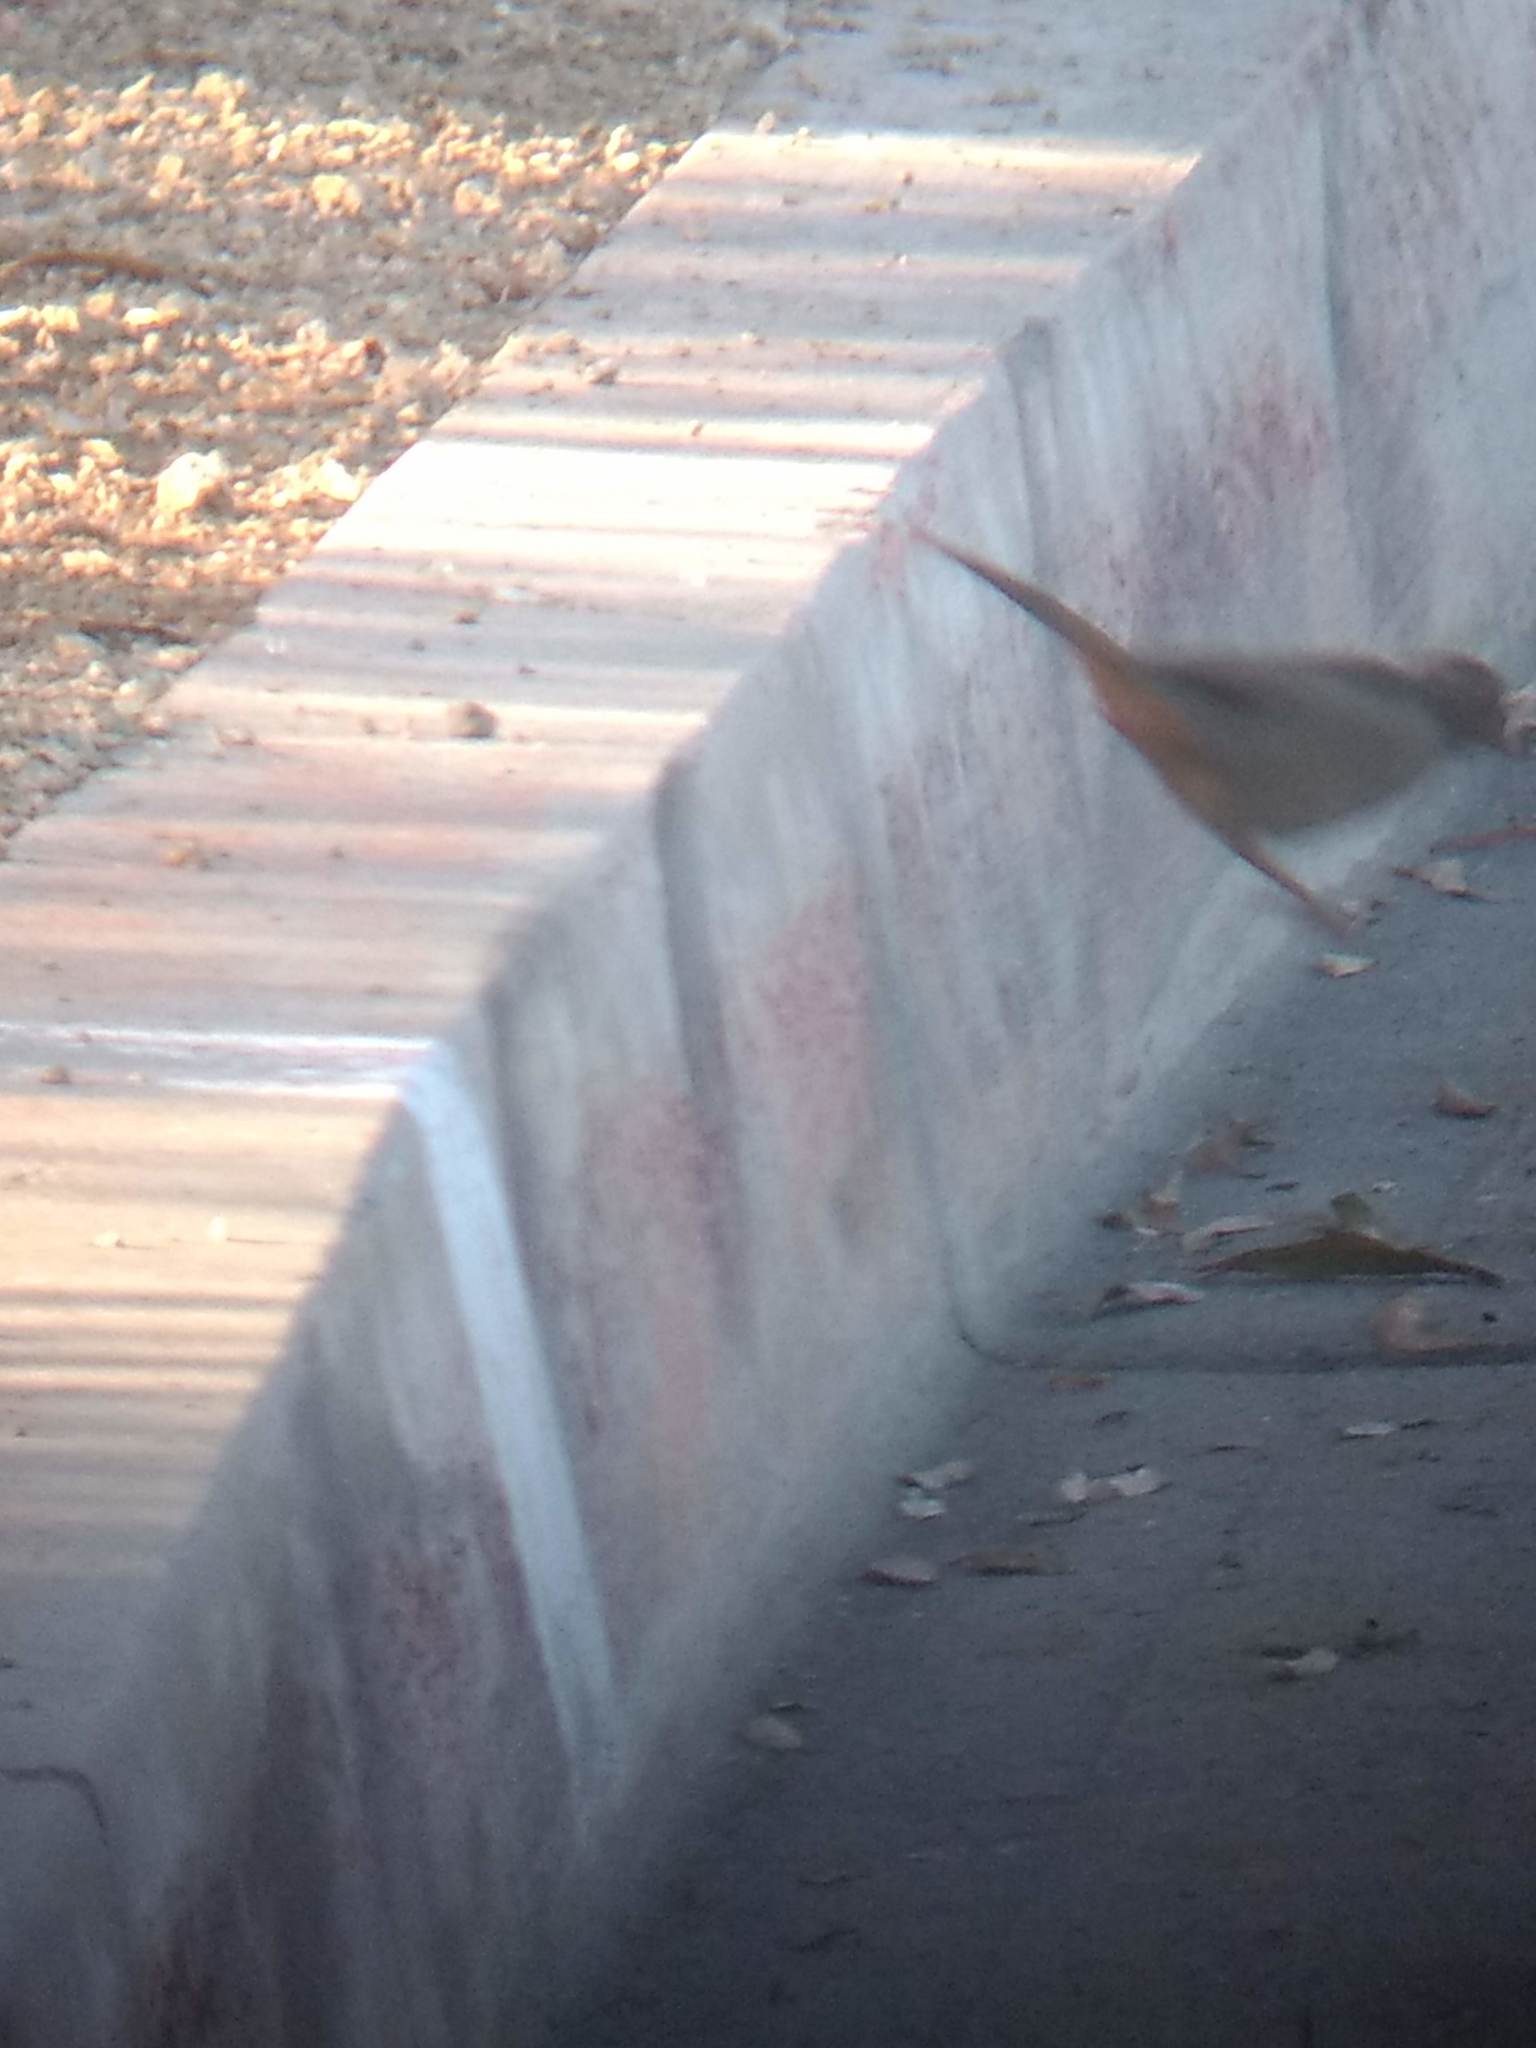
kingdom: Animalia
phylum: Chordata
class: Aves
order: Passeriformes
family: Passerellidae
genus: Melozone
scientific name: Melozone crissalis
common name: California towhee
